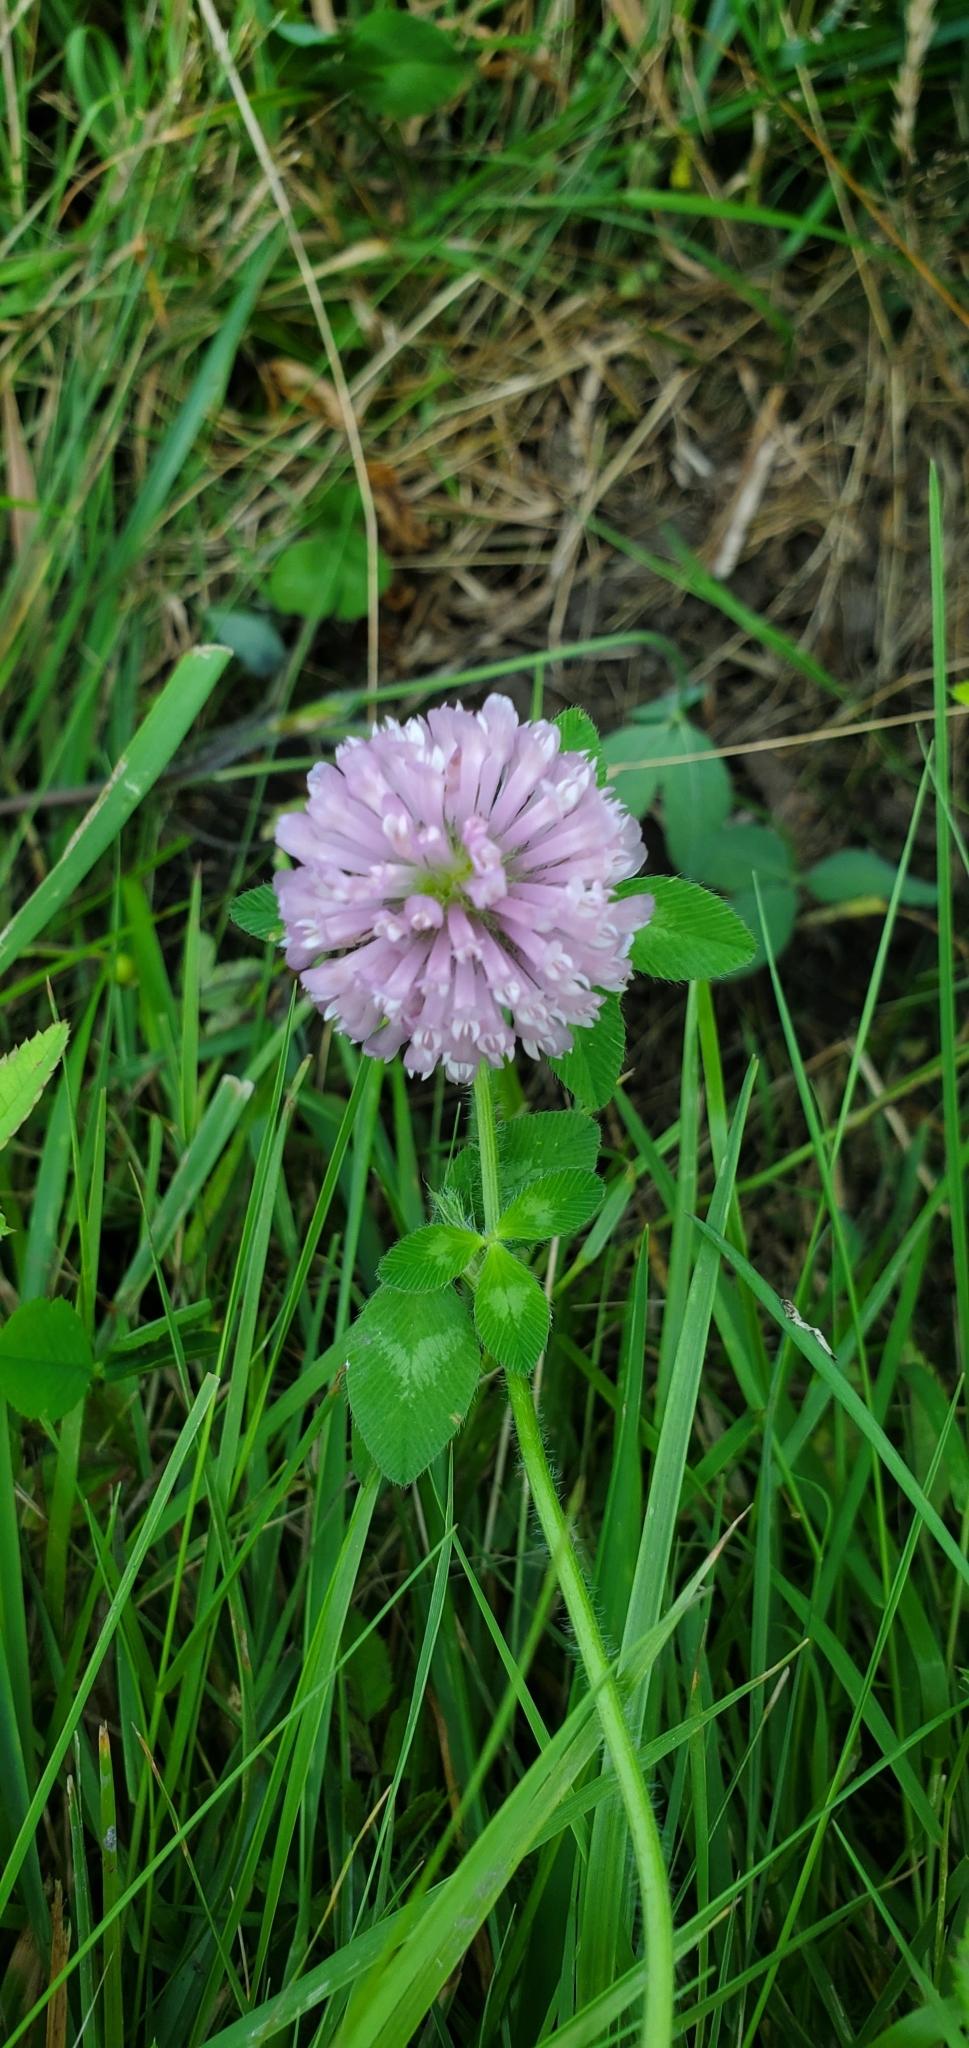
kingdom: Plantae
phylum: Tracheophyta
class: Magnoliopsida
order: Fabales
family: Fabaceae
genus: Trifolium
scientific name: Trifolium pratense
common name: Red clover
